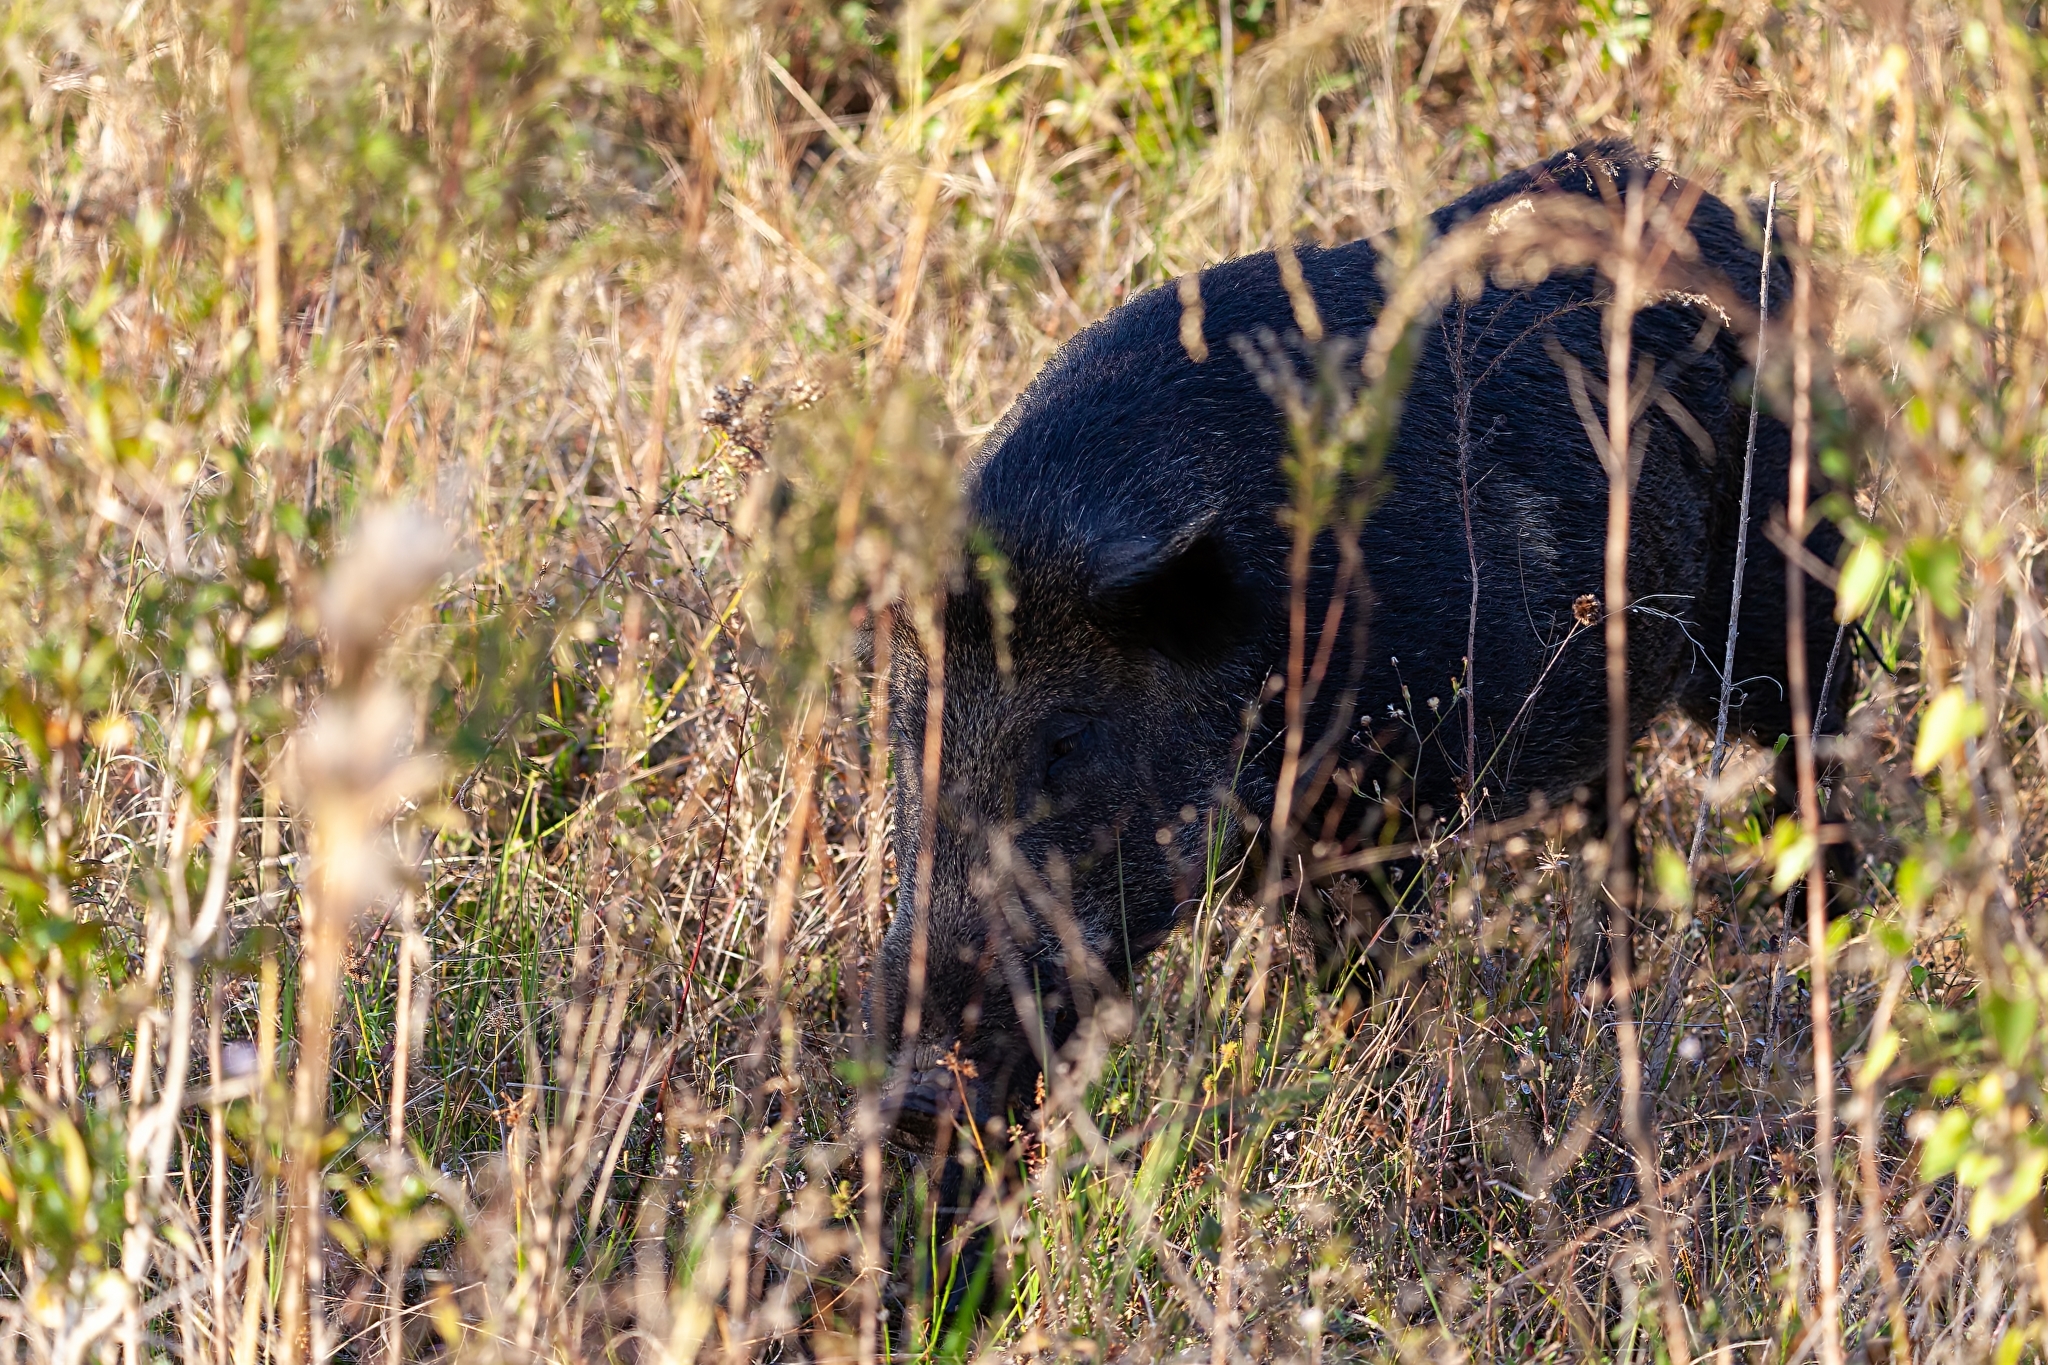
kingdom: Animalia
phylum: Chordata
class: Mammalia
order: Artiodactyla
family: Suidae
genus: Sus
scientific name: Sus scrofa
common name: Wild boar
